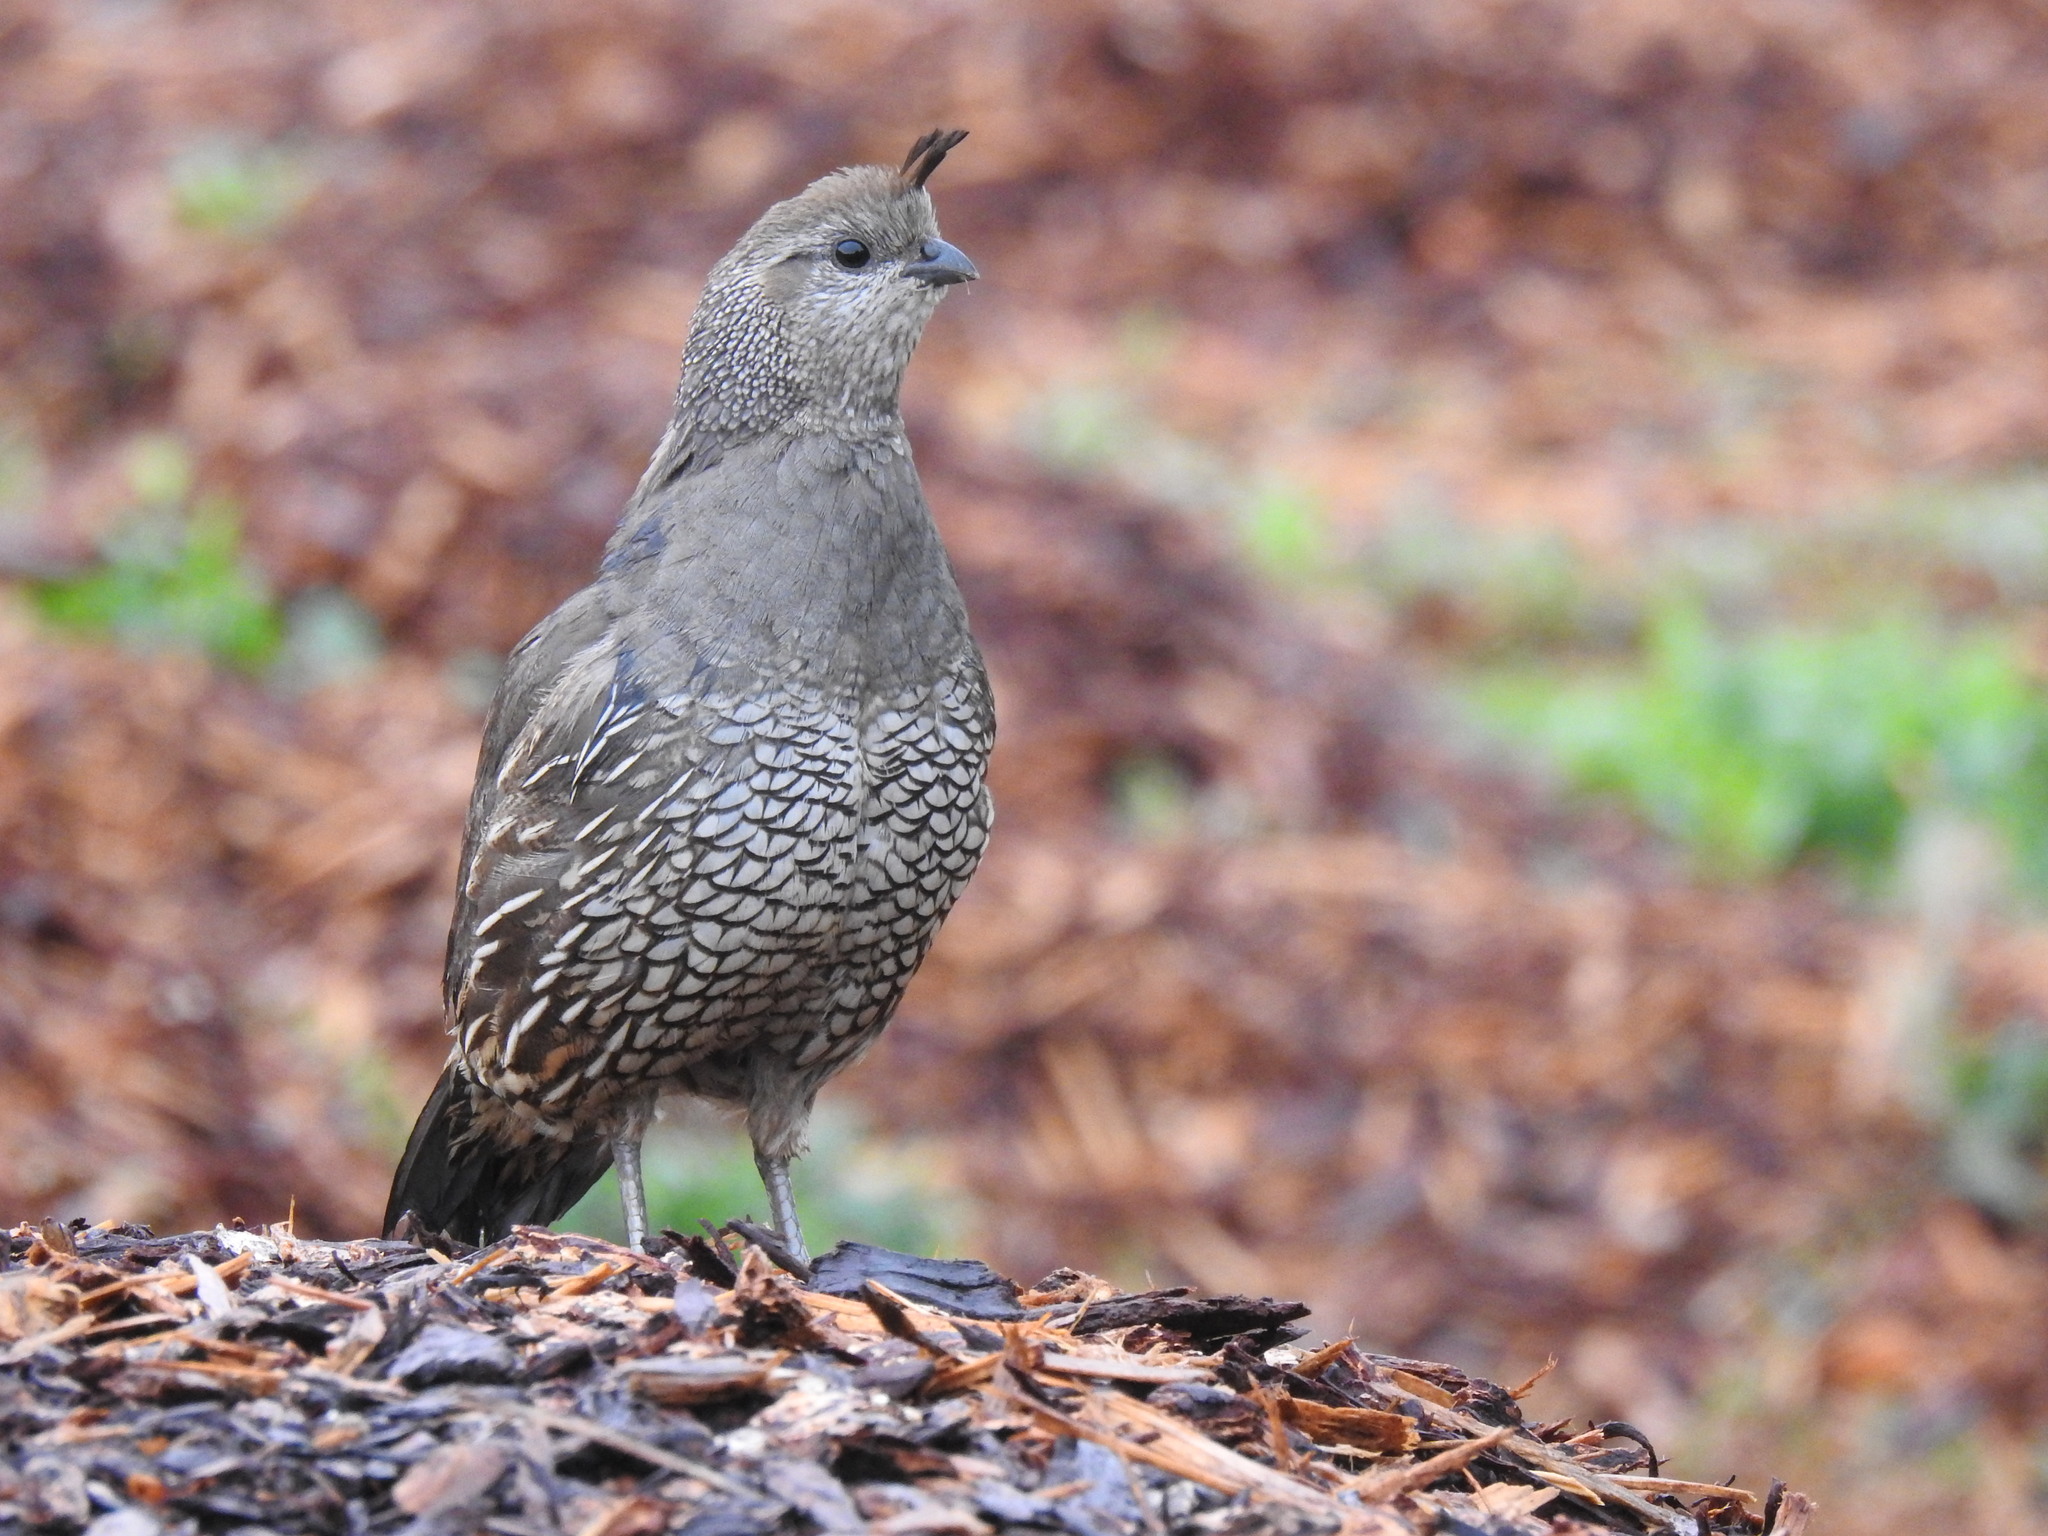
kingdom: Animalia
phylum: Chordata
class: Aves
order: Galliformes
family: Odontophoridae
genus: Callipepla
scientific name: Callipepla californica
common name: California quail
